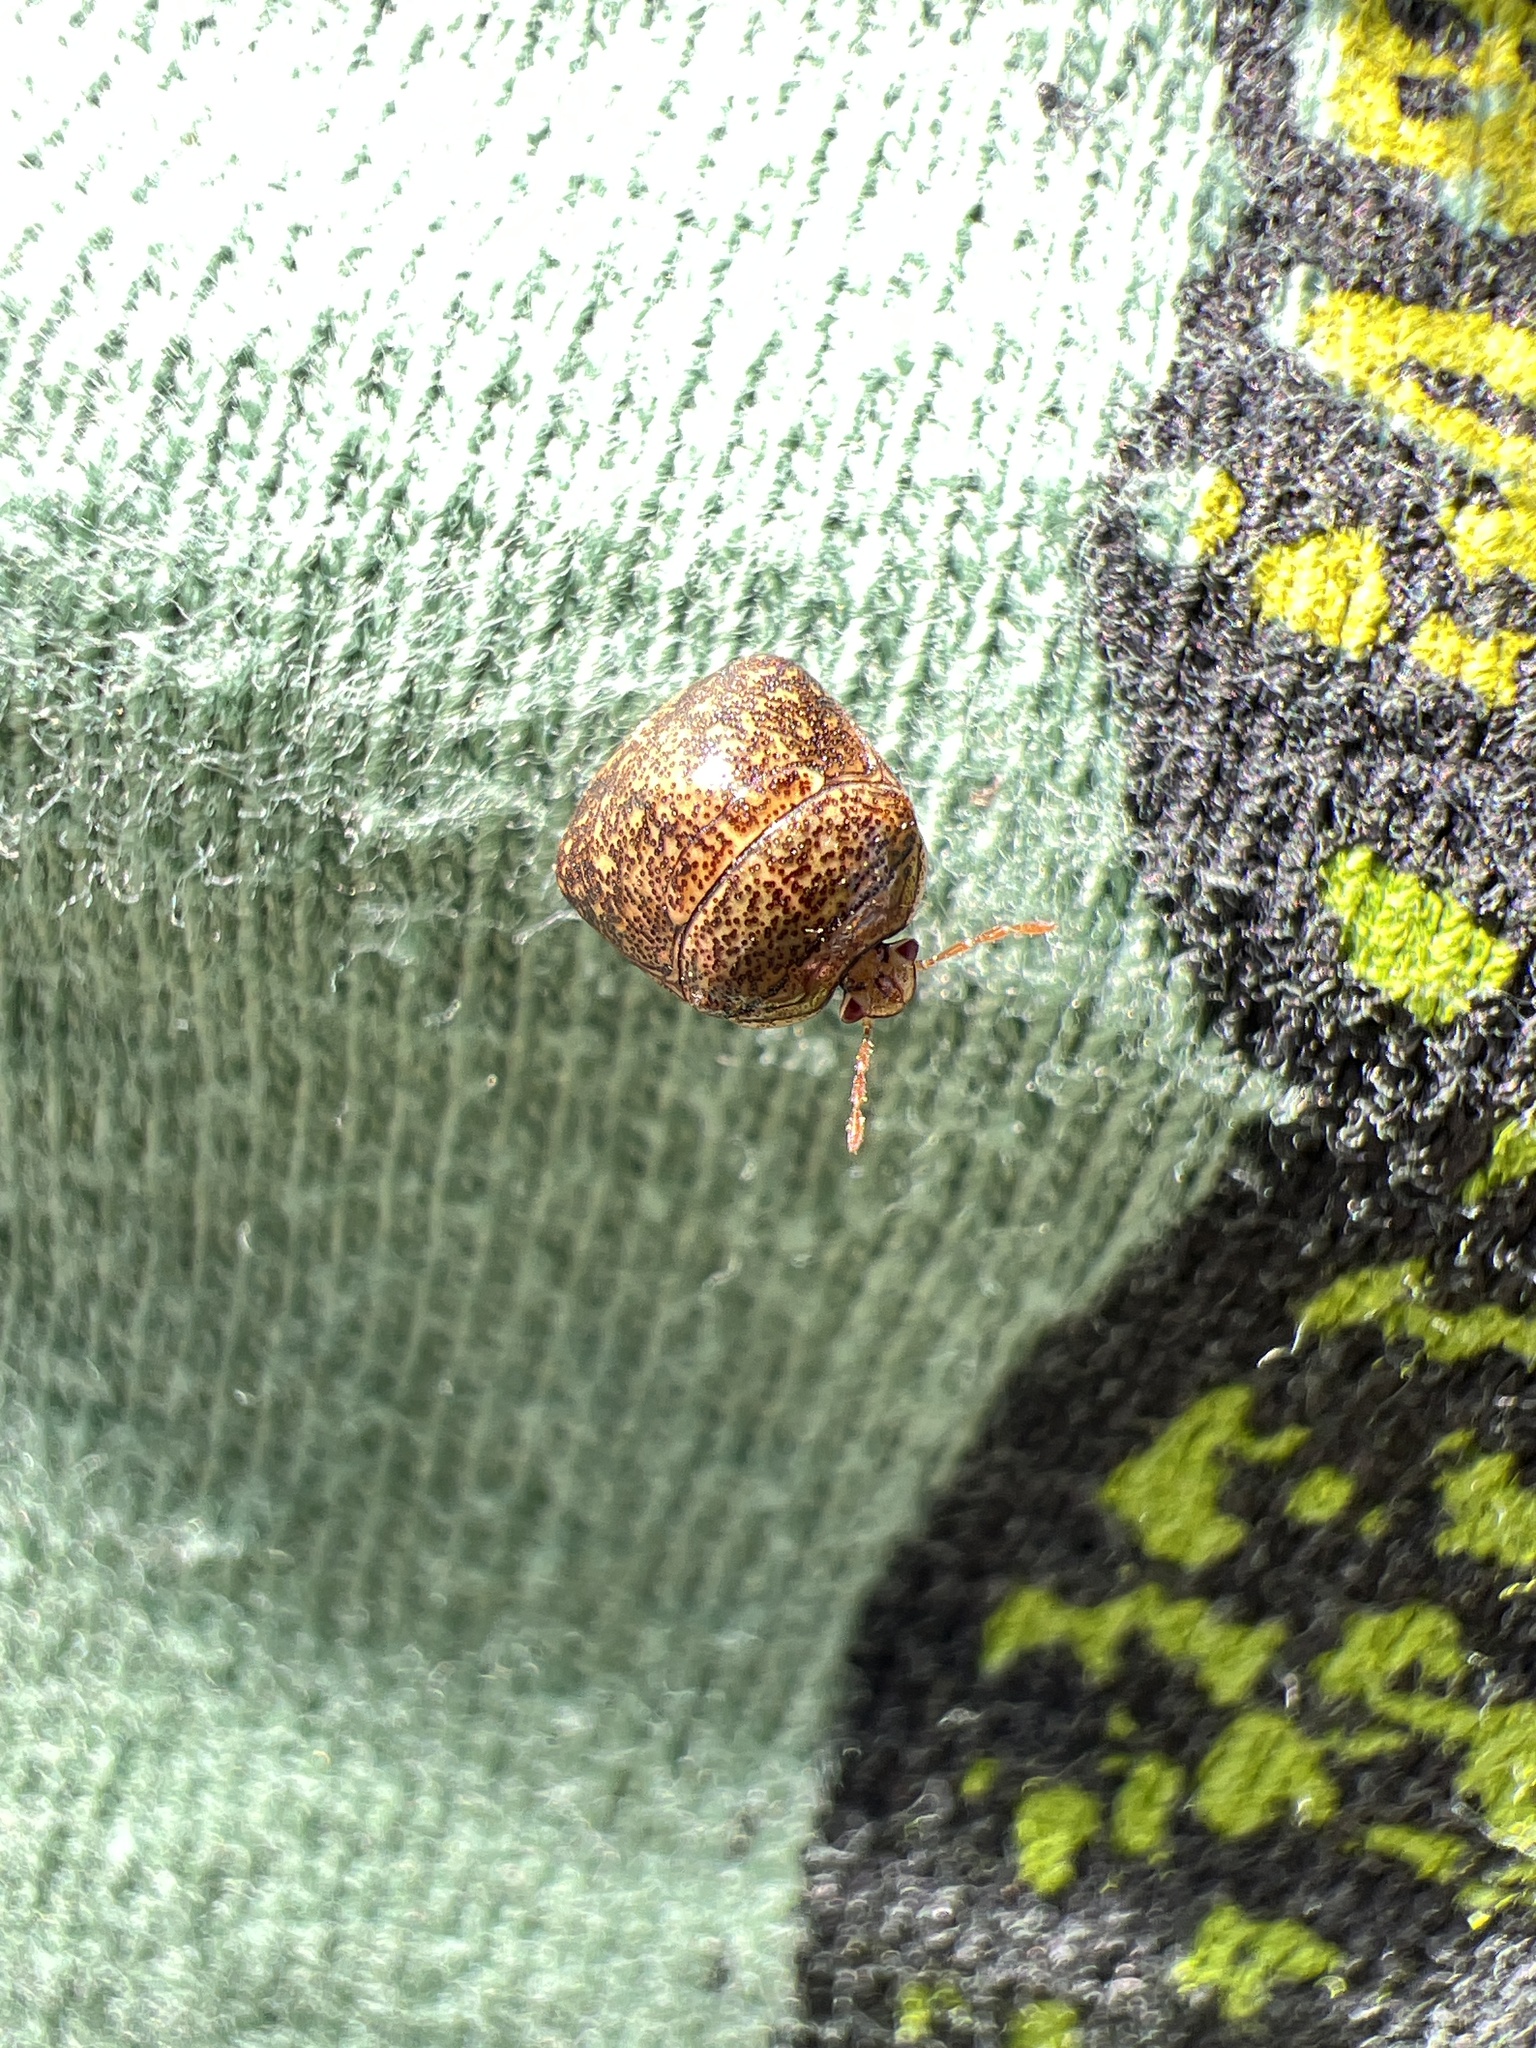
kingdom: Animalia
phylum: Arthropoda
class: Insecta
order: Hemiptera
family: Plataspidae
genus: Megacopta
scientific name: Megacopta cribraria
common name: Bean plataspid
